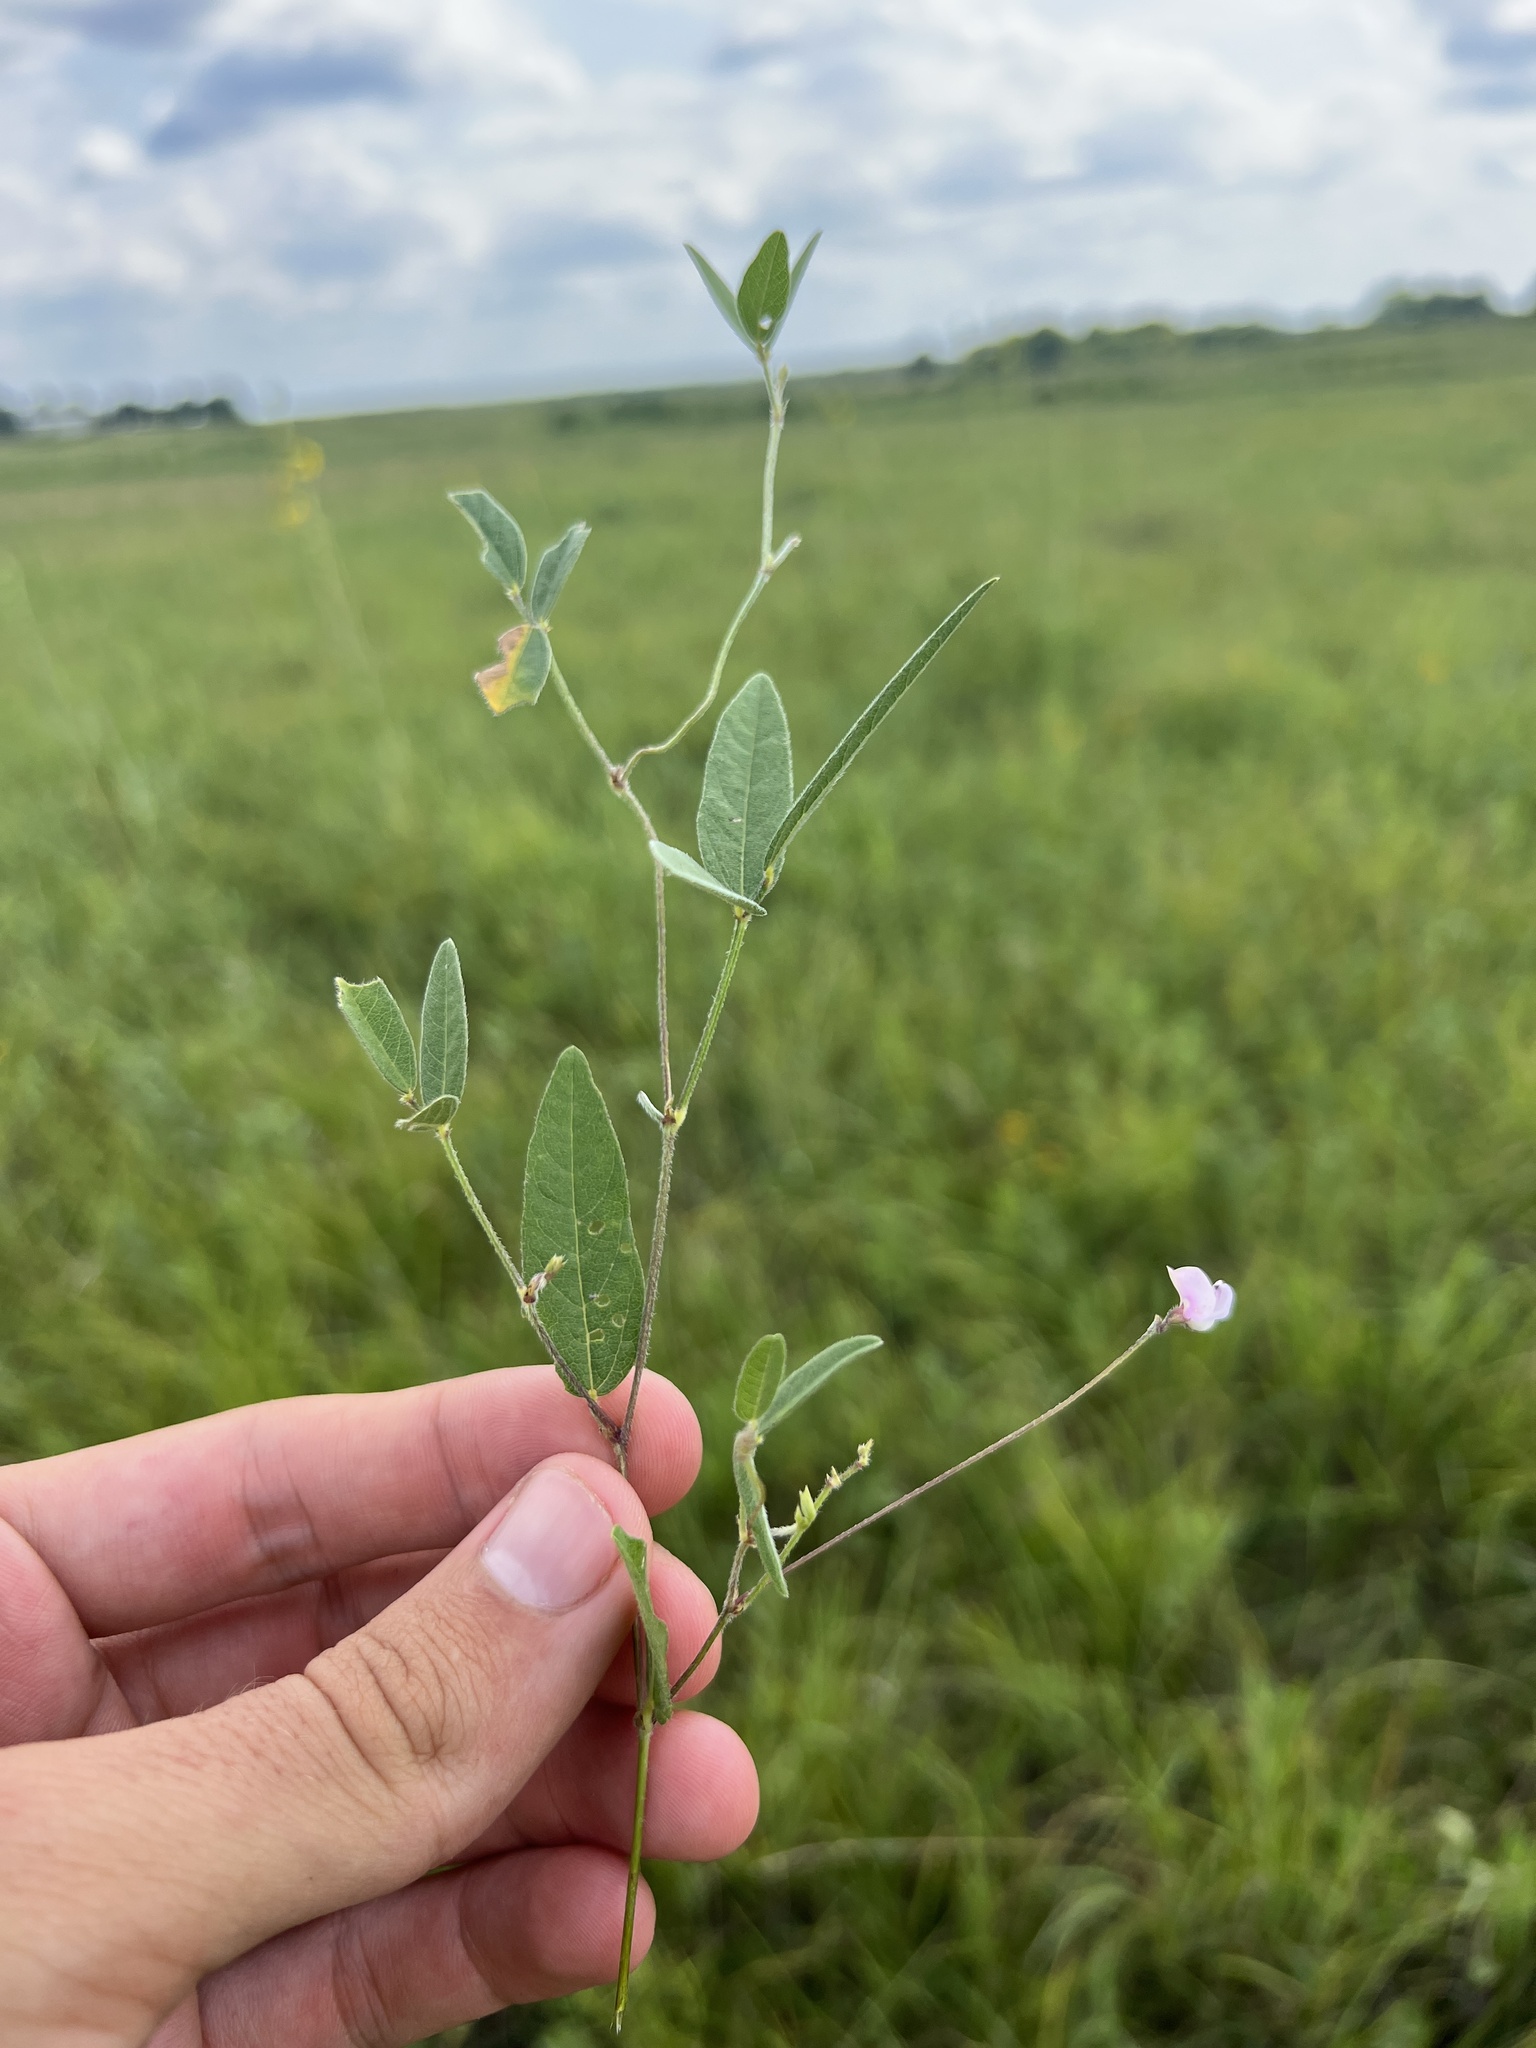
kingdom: Plantae
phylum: Tracheophyta
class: Magnoliopsida
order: Fabales
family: Fabaceae
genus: Strophostyles
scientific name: Strophostyles leiosperma
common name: Smooth-seed wild bean
